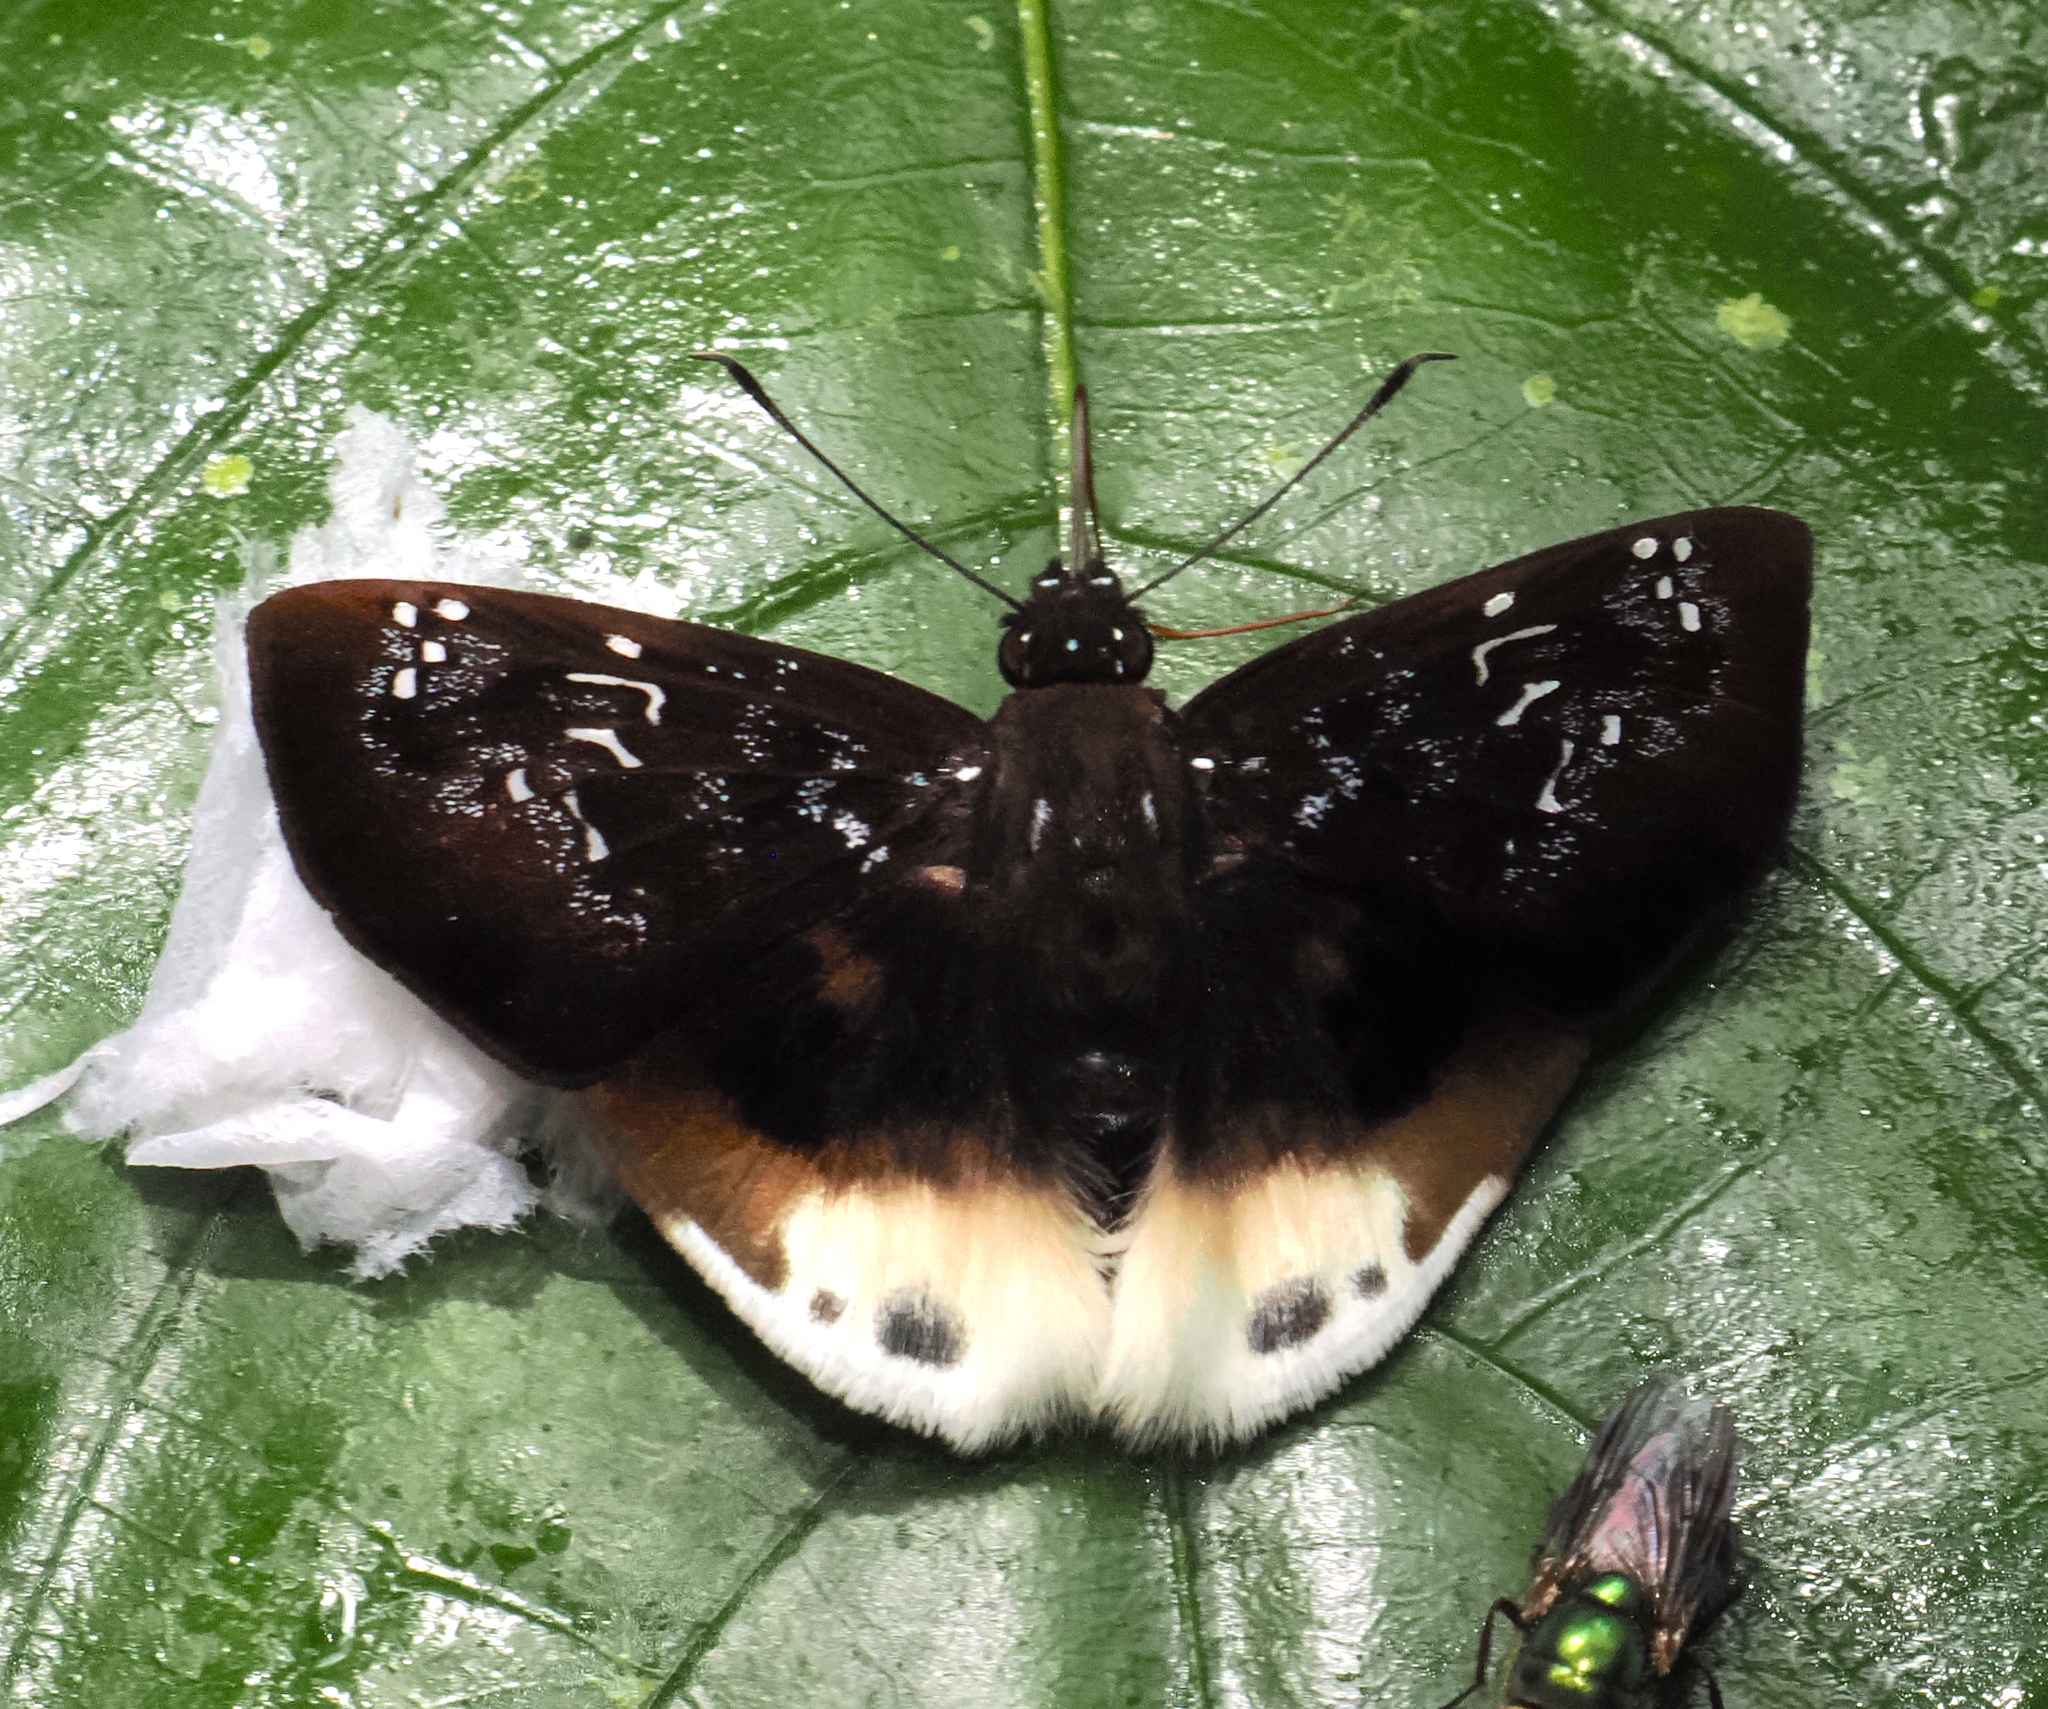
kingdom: Animalia
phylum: Arthropoda
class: Insecta
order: Lepidoptera
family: Hesperiidae
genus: Spioniades
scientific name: Spioniades abbreviata
